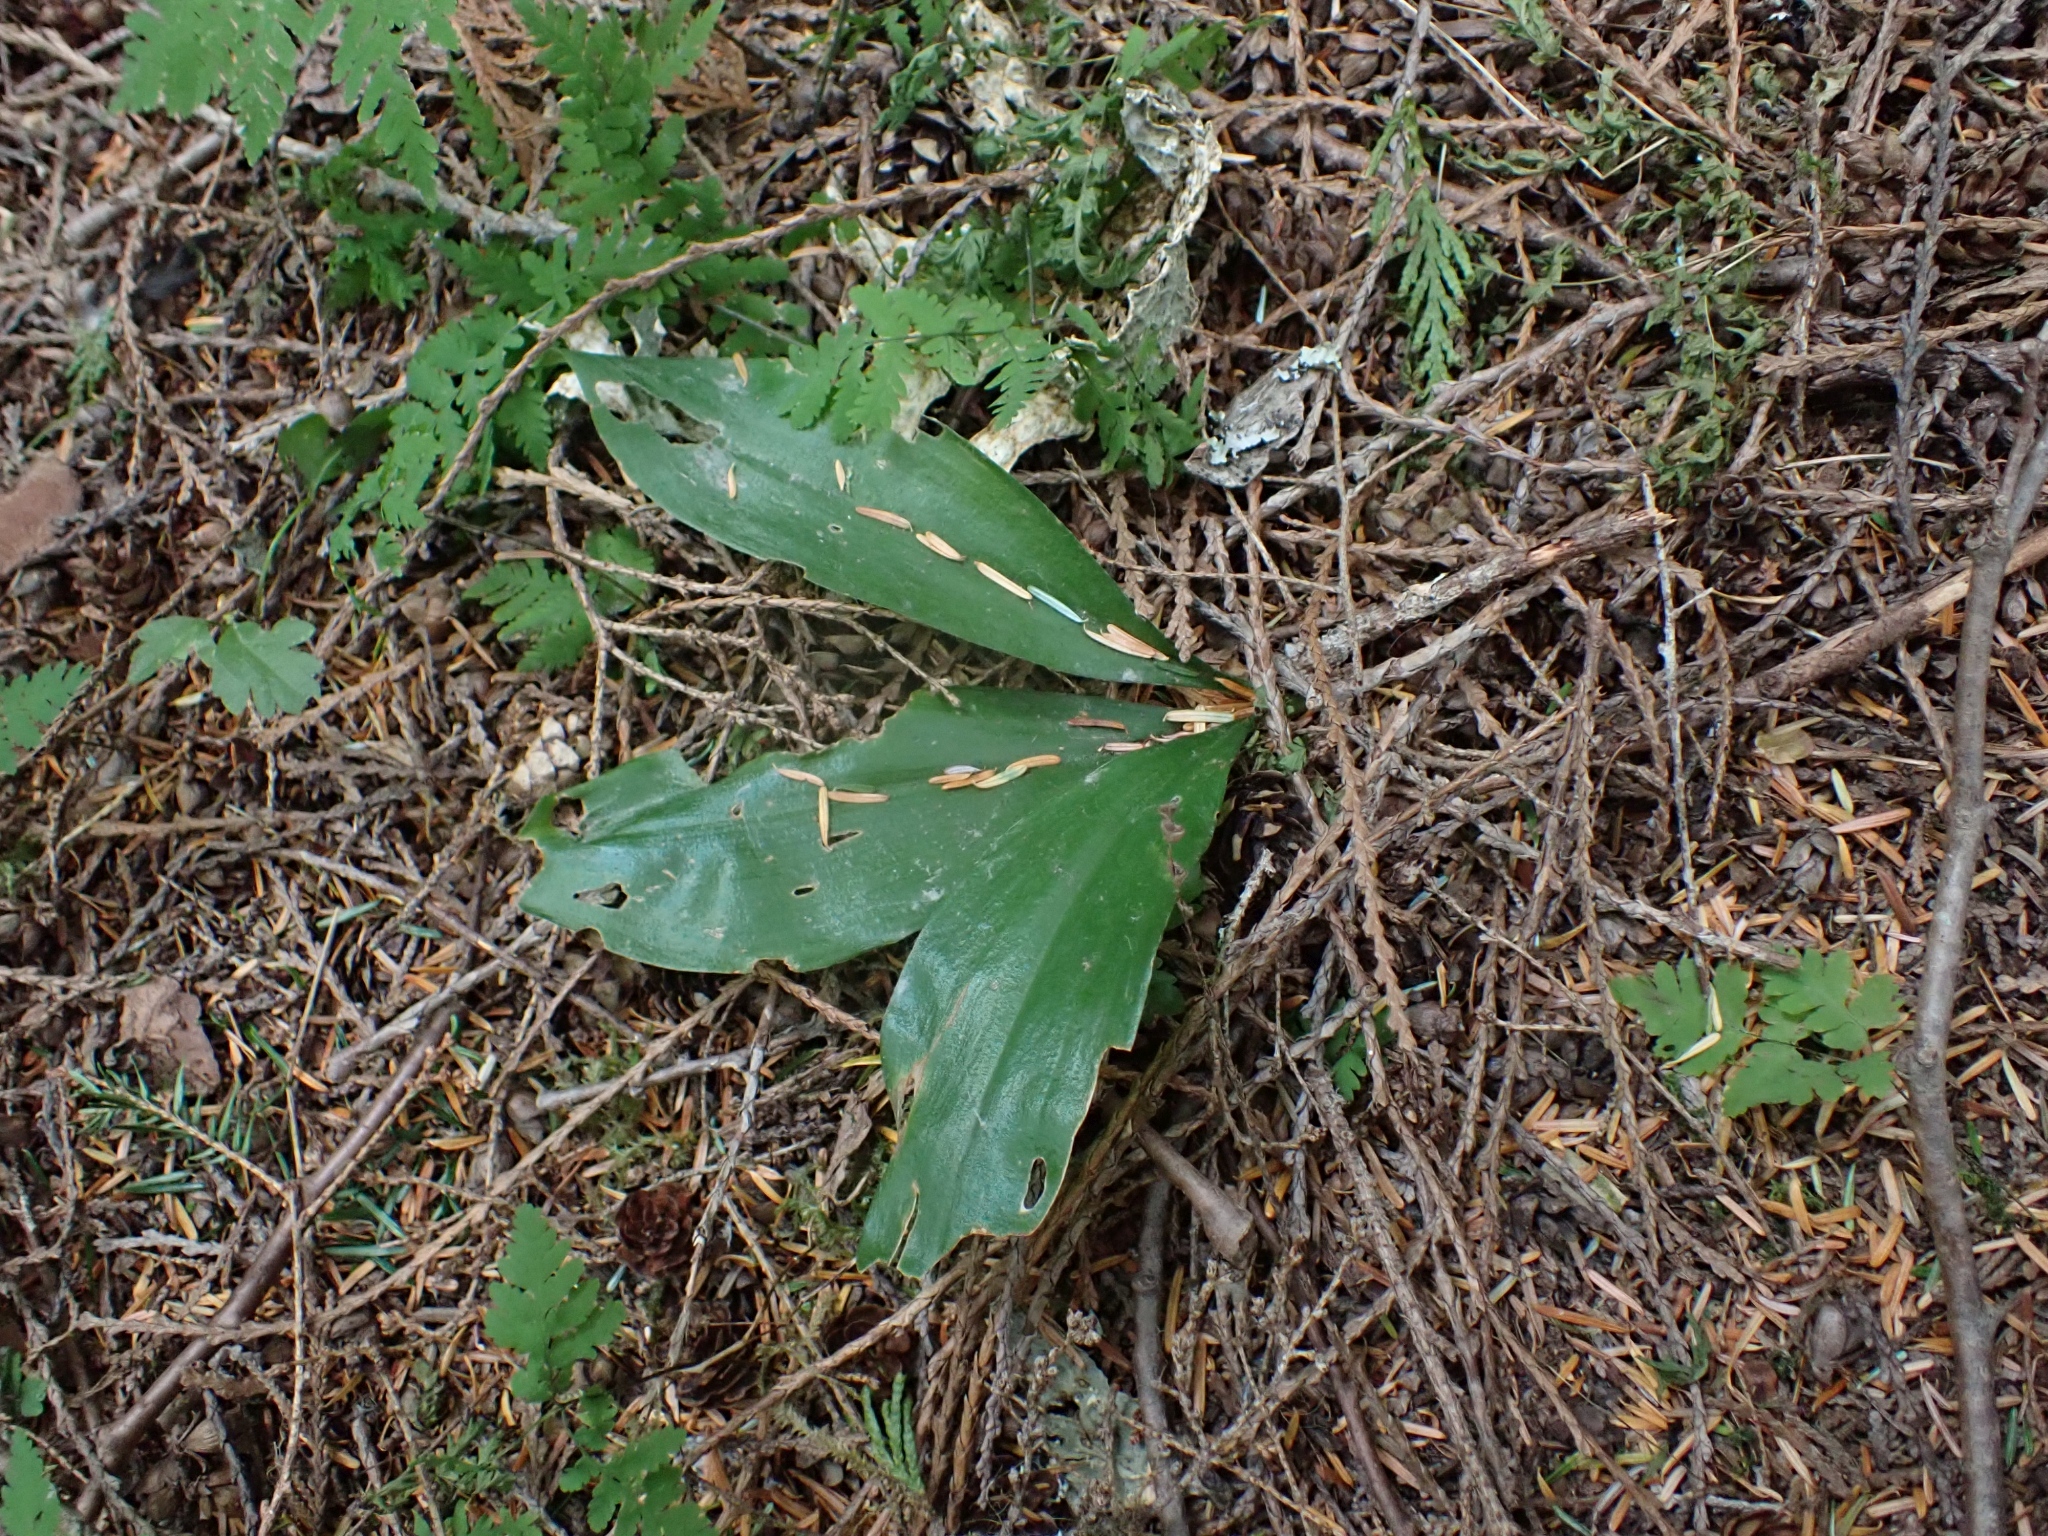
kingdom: Plantae
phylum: Tracheophyta
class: Liliopsida
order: Liliales
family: Liliaceae
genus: Clintonia
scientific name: Clintonia uniflora
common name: Queen's cup
